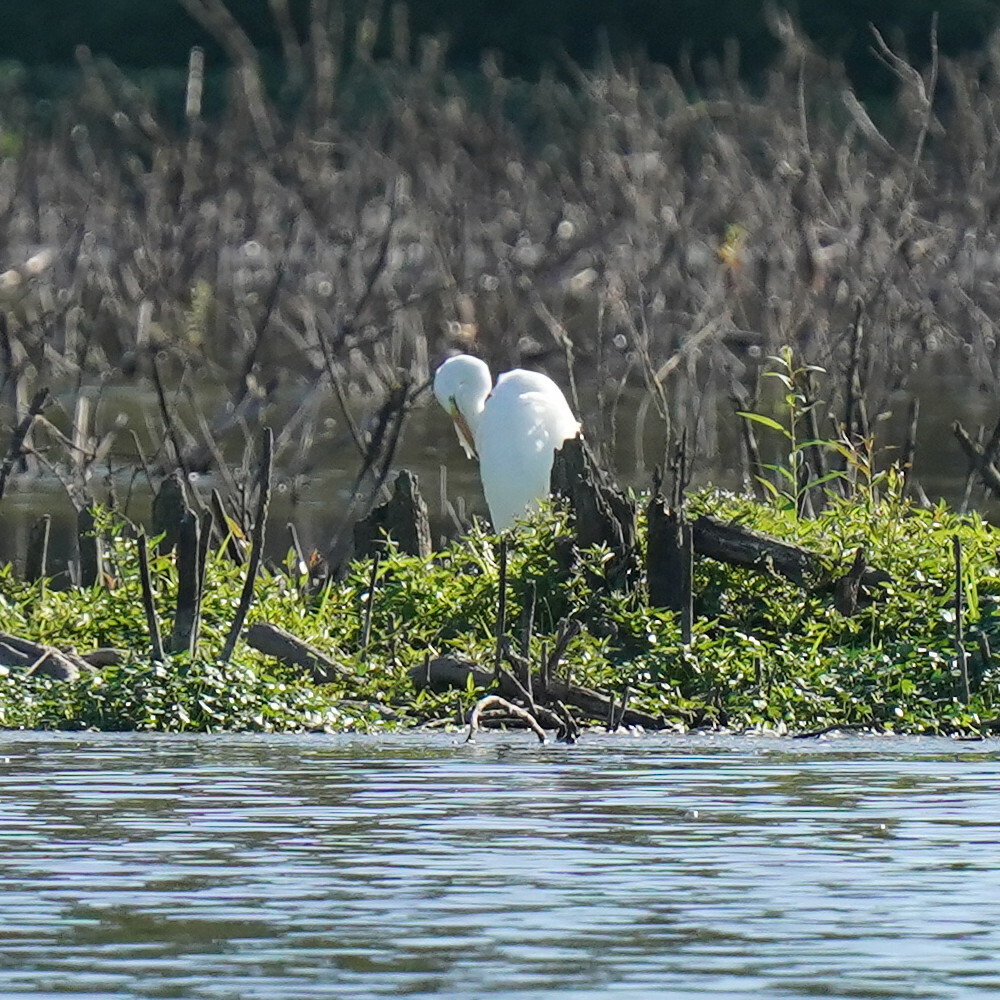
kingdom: Animalia
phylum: Chordata
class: Aves
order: Pelecaniformes
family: Ardeidae
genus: Ardea
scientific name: Ardea alba
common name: Great egret
